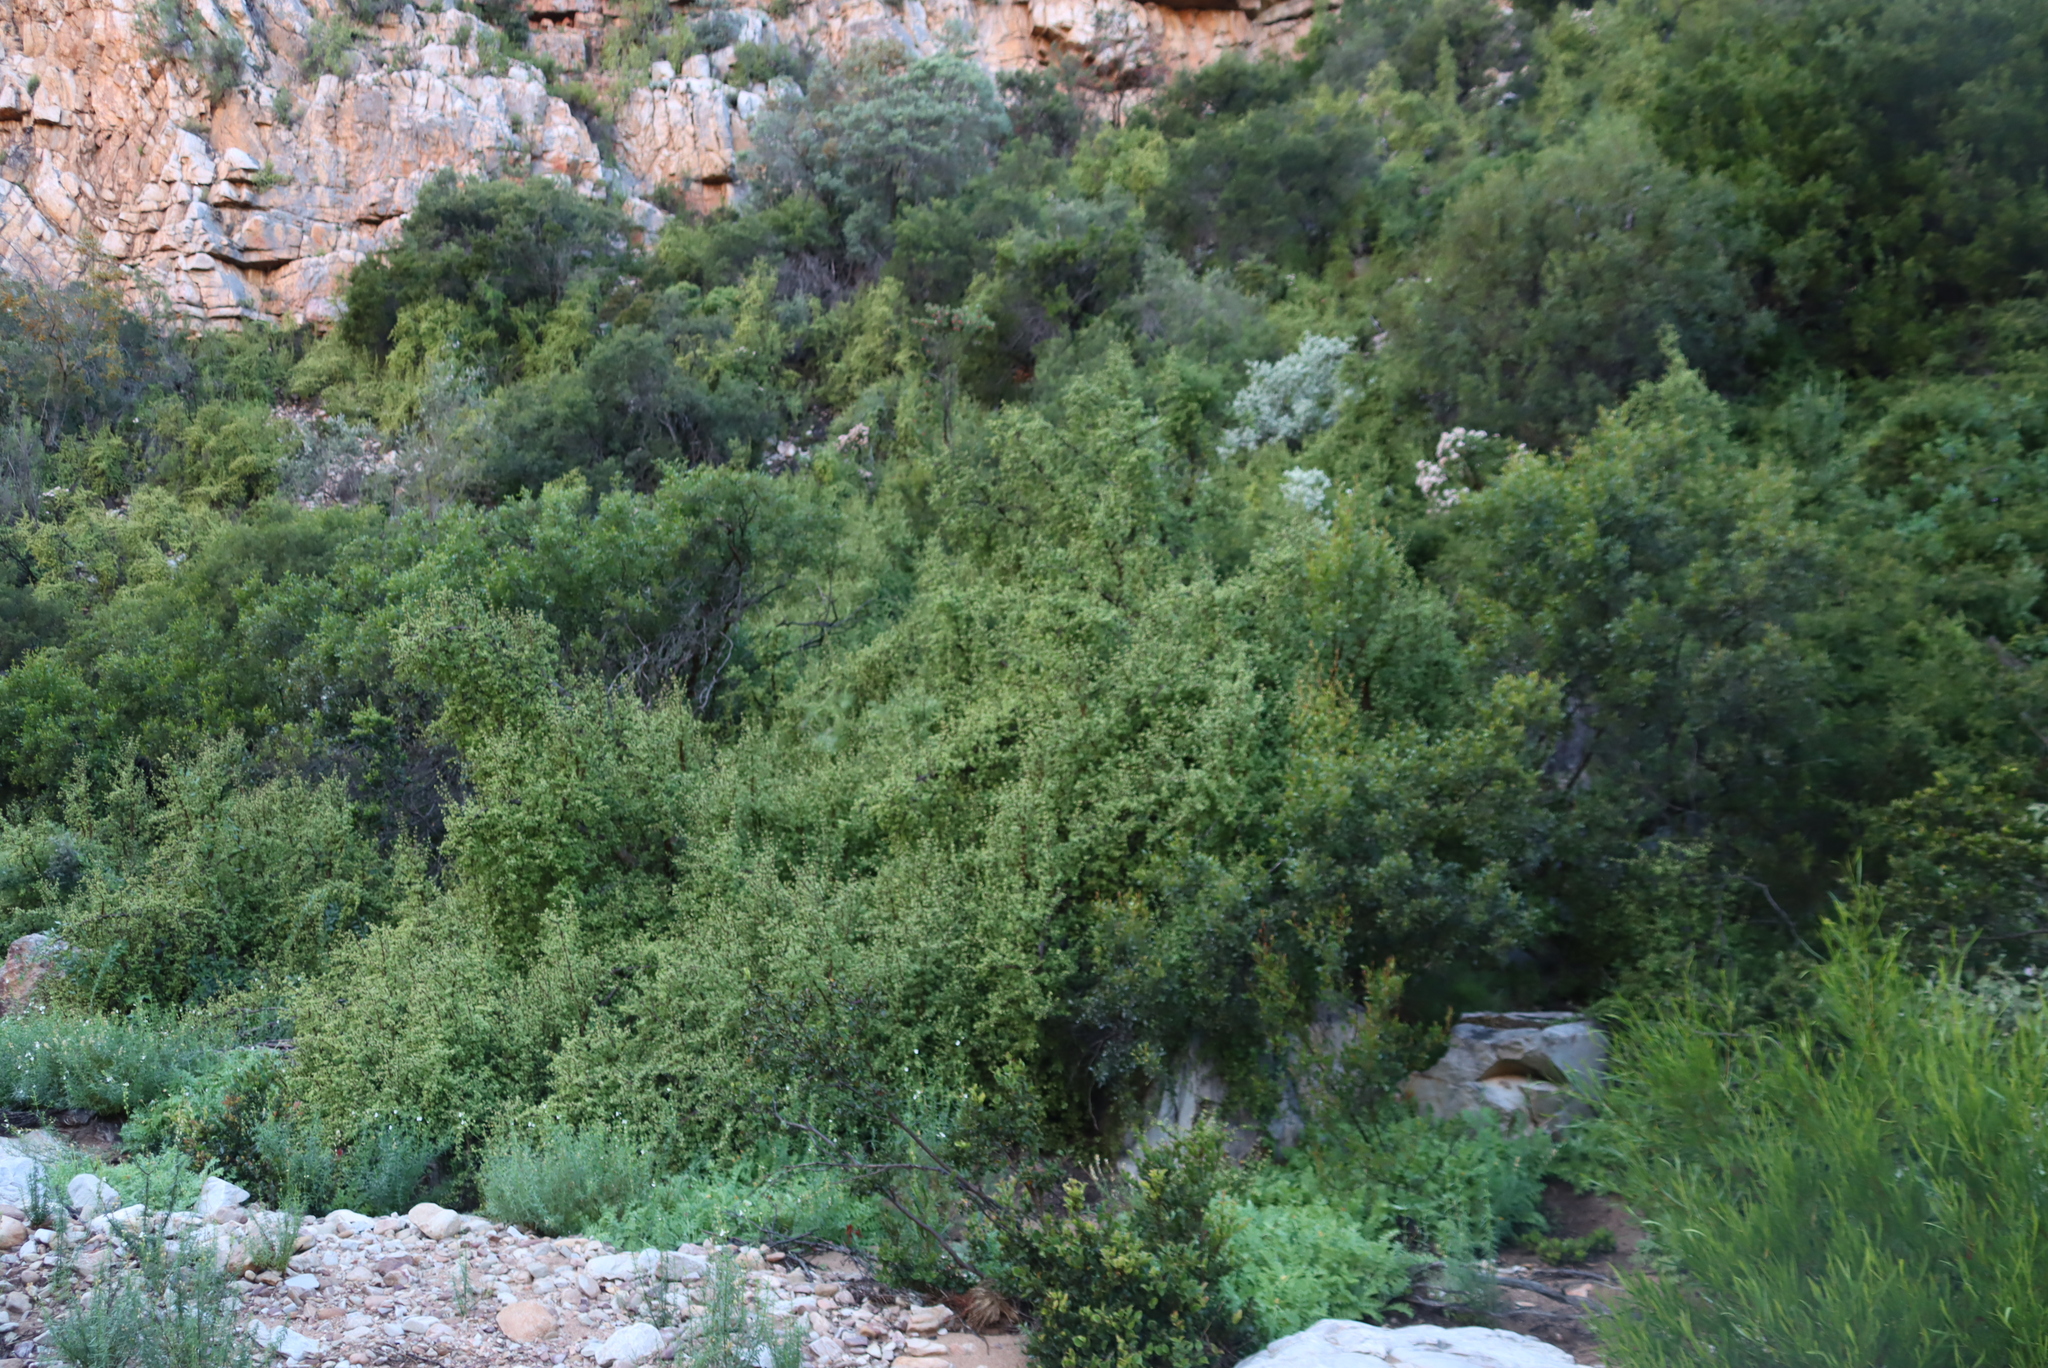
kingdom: Plantae
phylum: Tracheophyta
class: Magnoliopsida
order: Caryophyllales
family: Didiereaceae
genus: Portulacaria
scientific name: Portulacaria afra
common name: Elephant-bush
